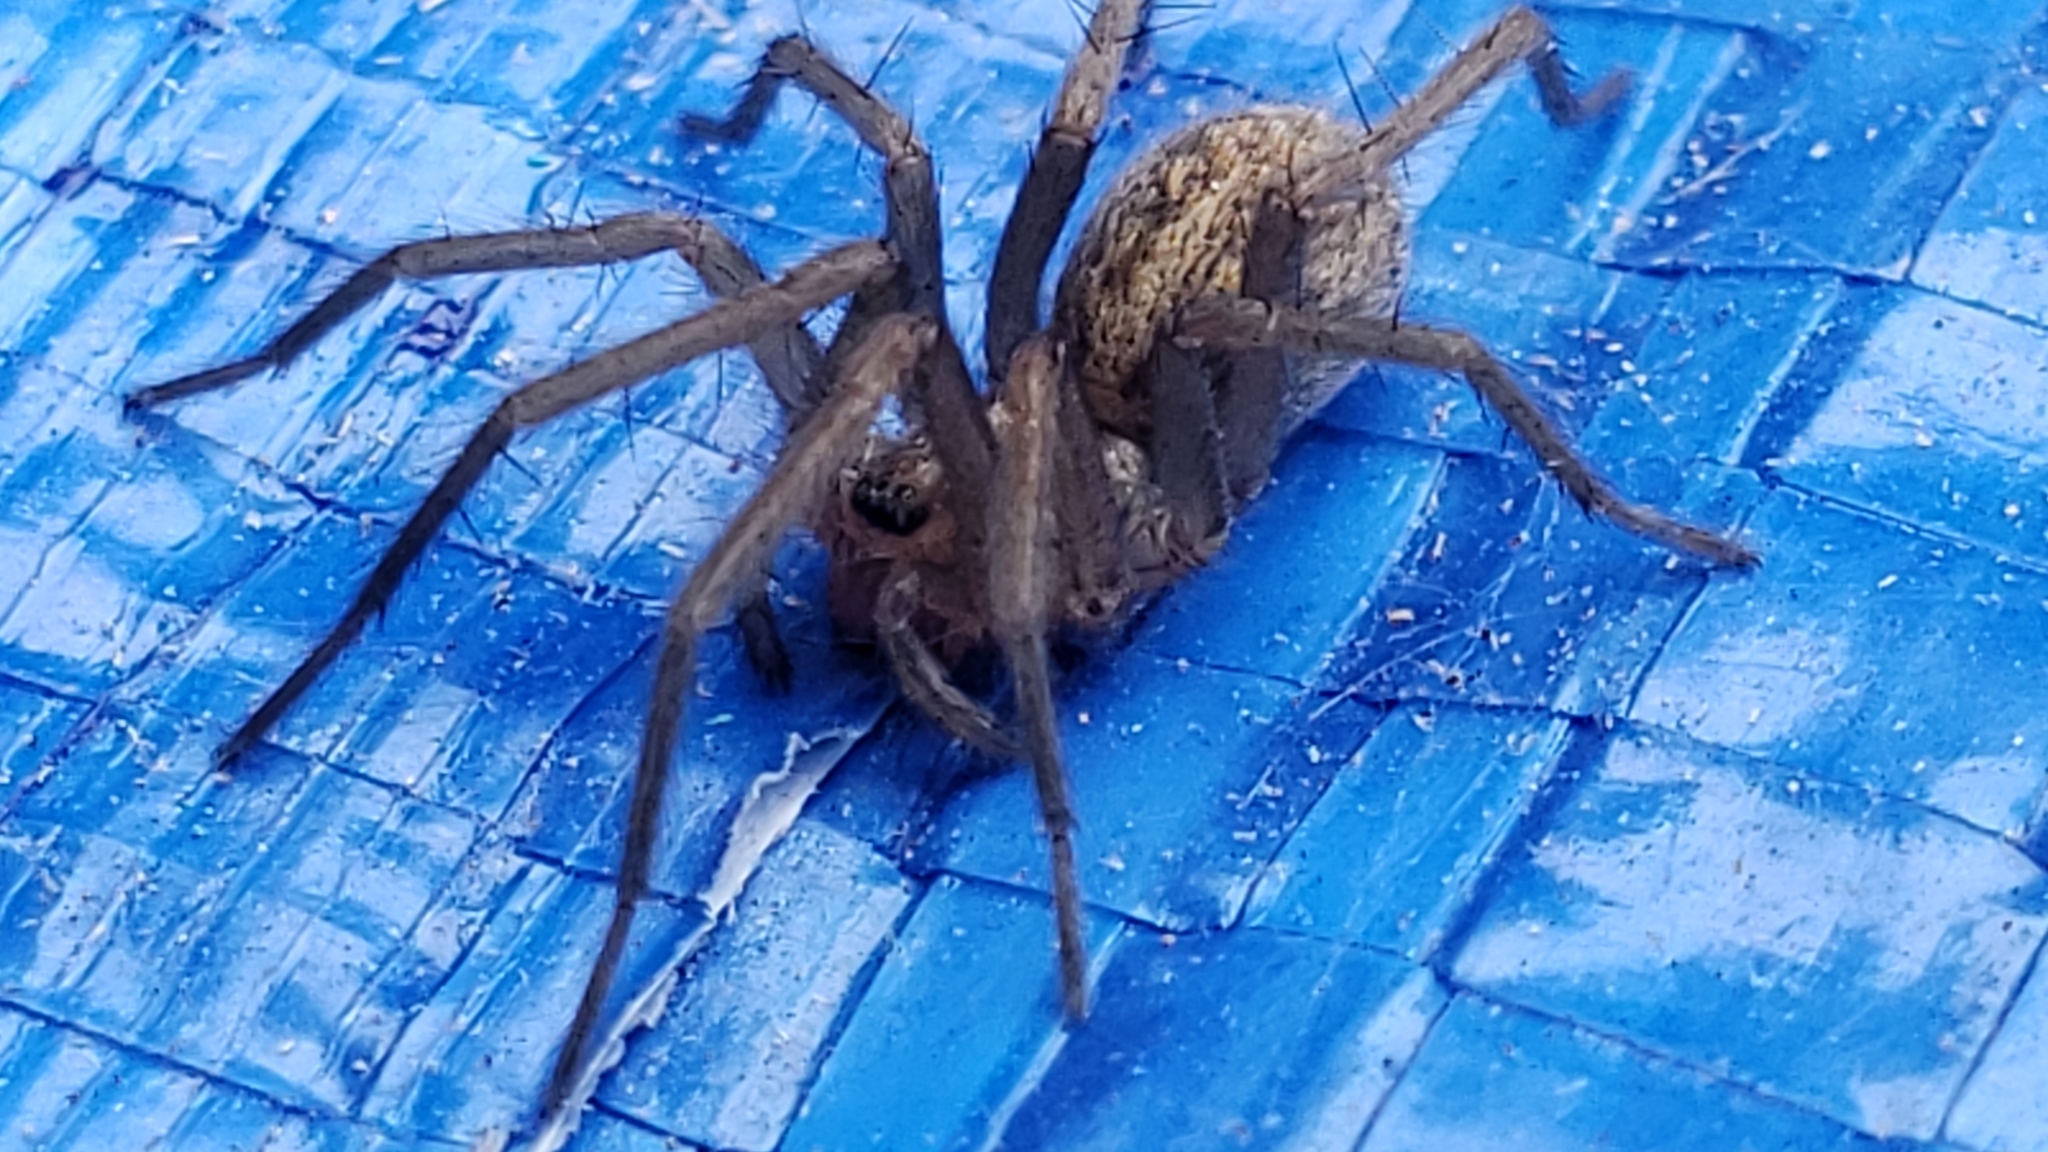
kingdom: Animalia
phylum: Arthropoda
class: Arachnida
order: Araneae
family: Agelenidae
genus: Eratigena
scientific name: Eratigena agrestis
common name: Hobo spider
